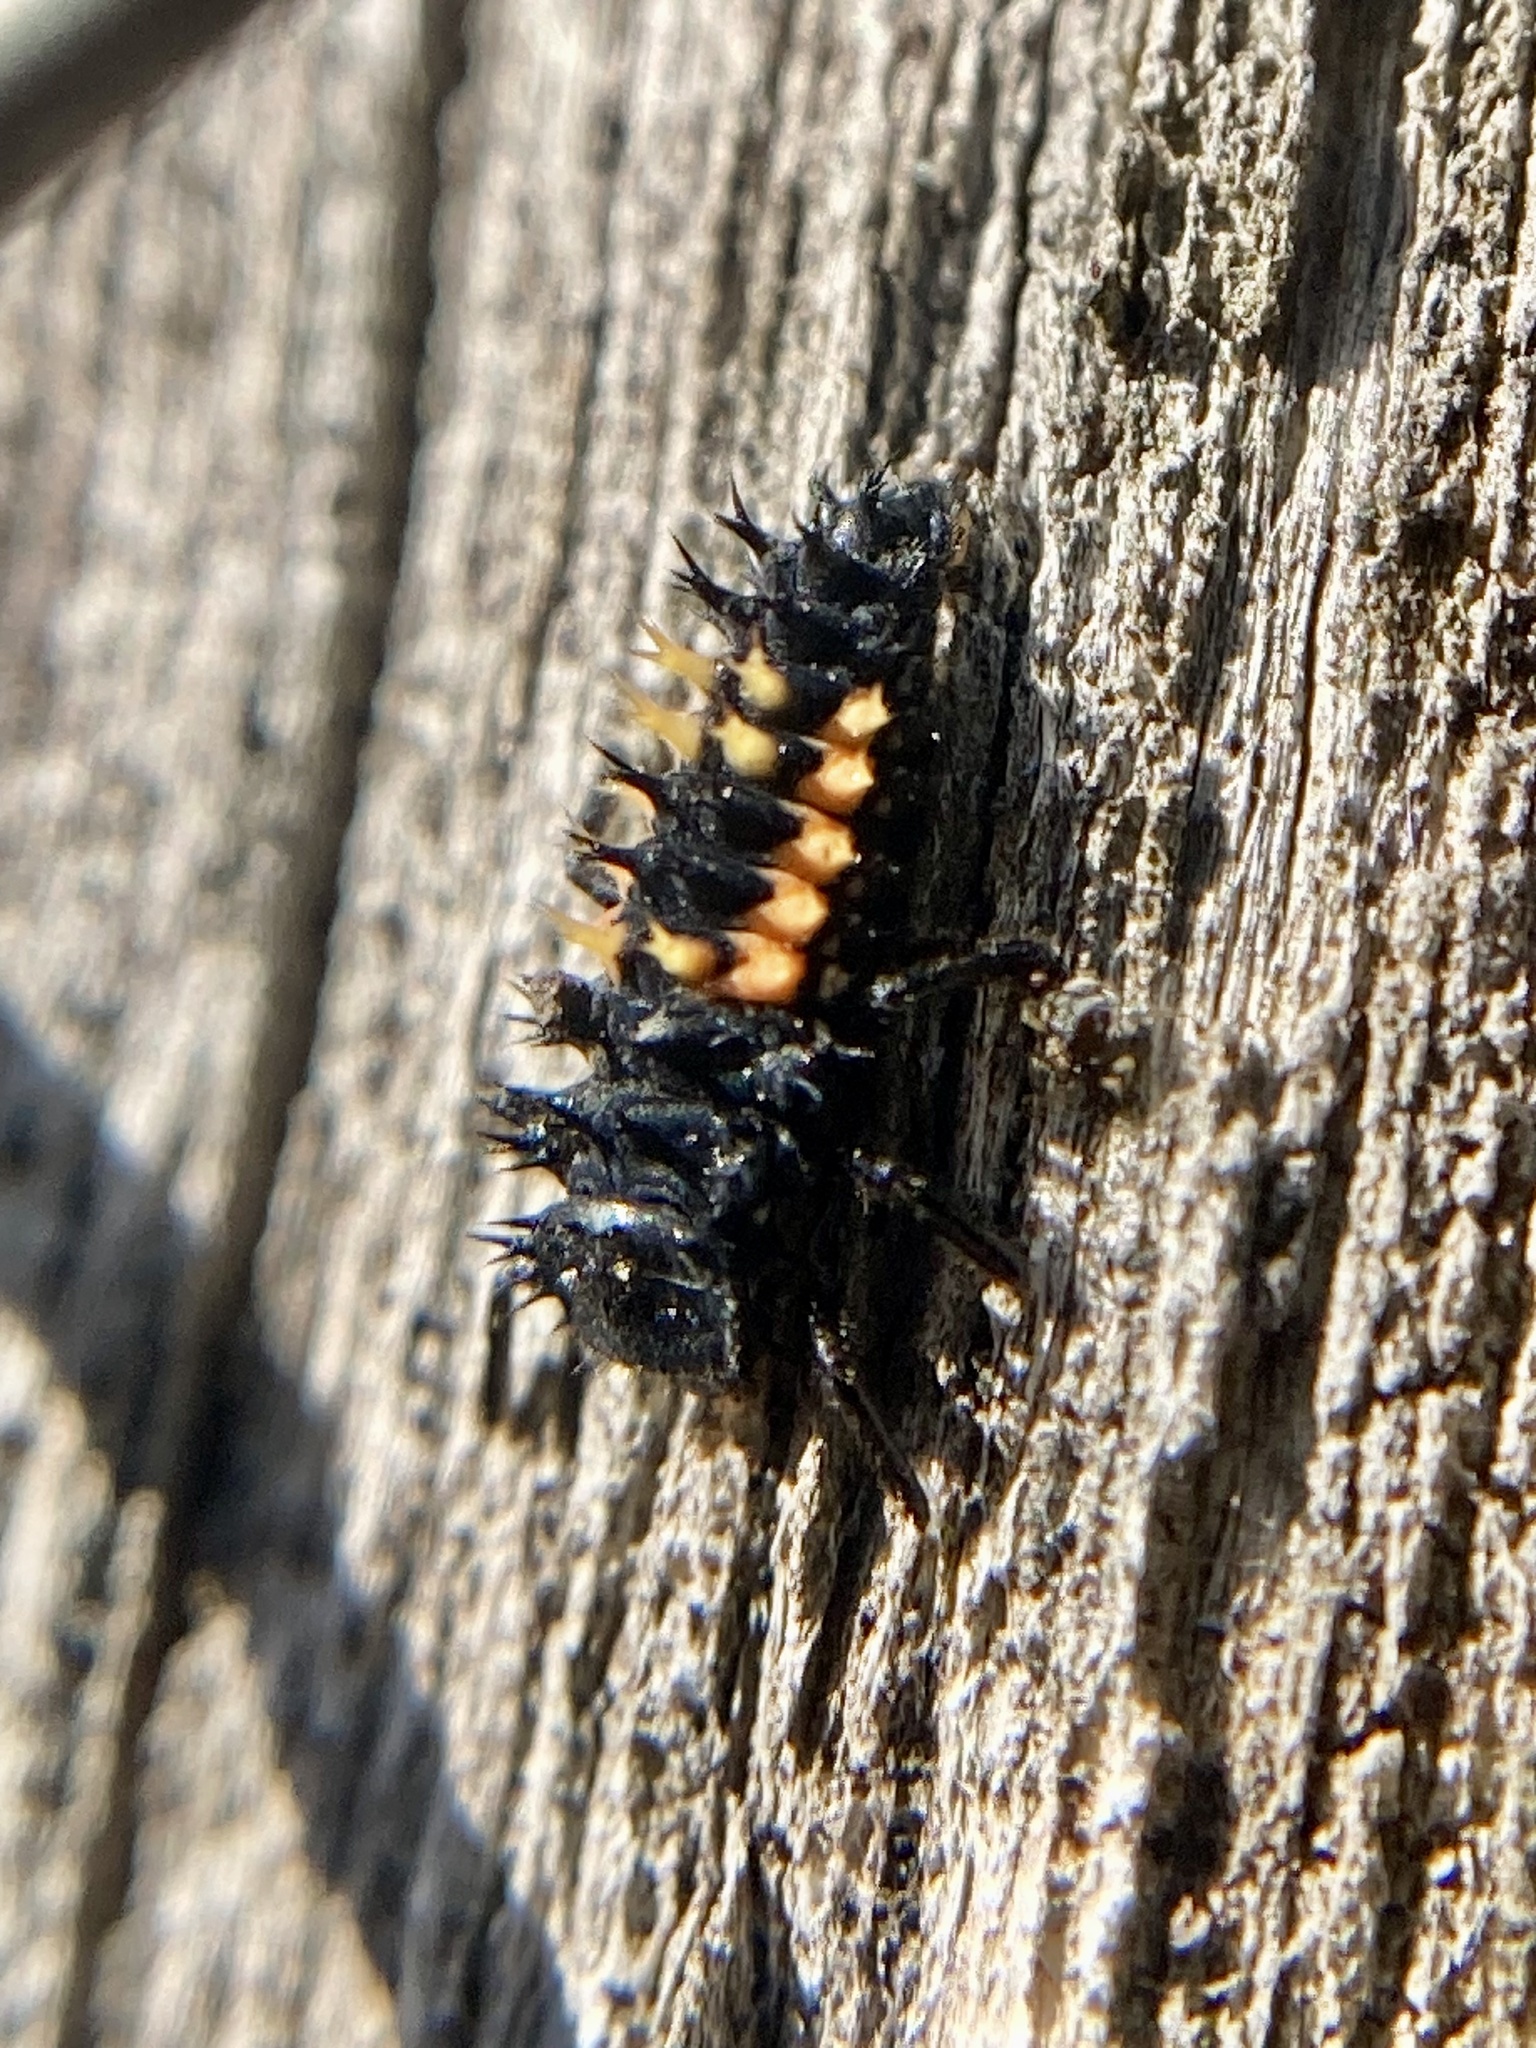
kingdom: Animalia
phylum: Arthropoda
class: Insecta
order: Coleoptera
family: Coccinellidae
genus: Harmonia
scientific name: Harmonia axyridis
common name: Harlequin ladybird
